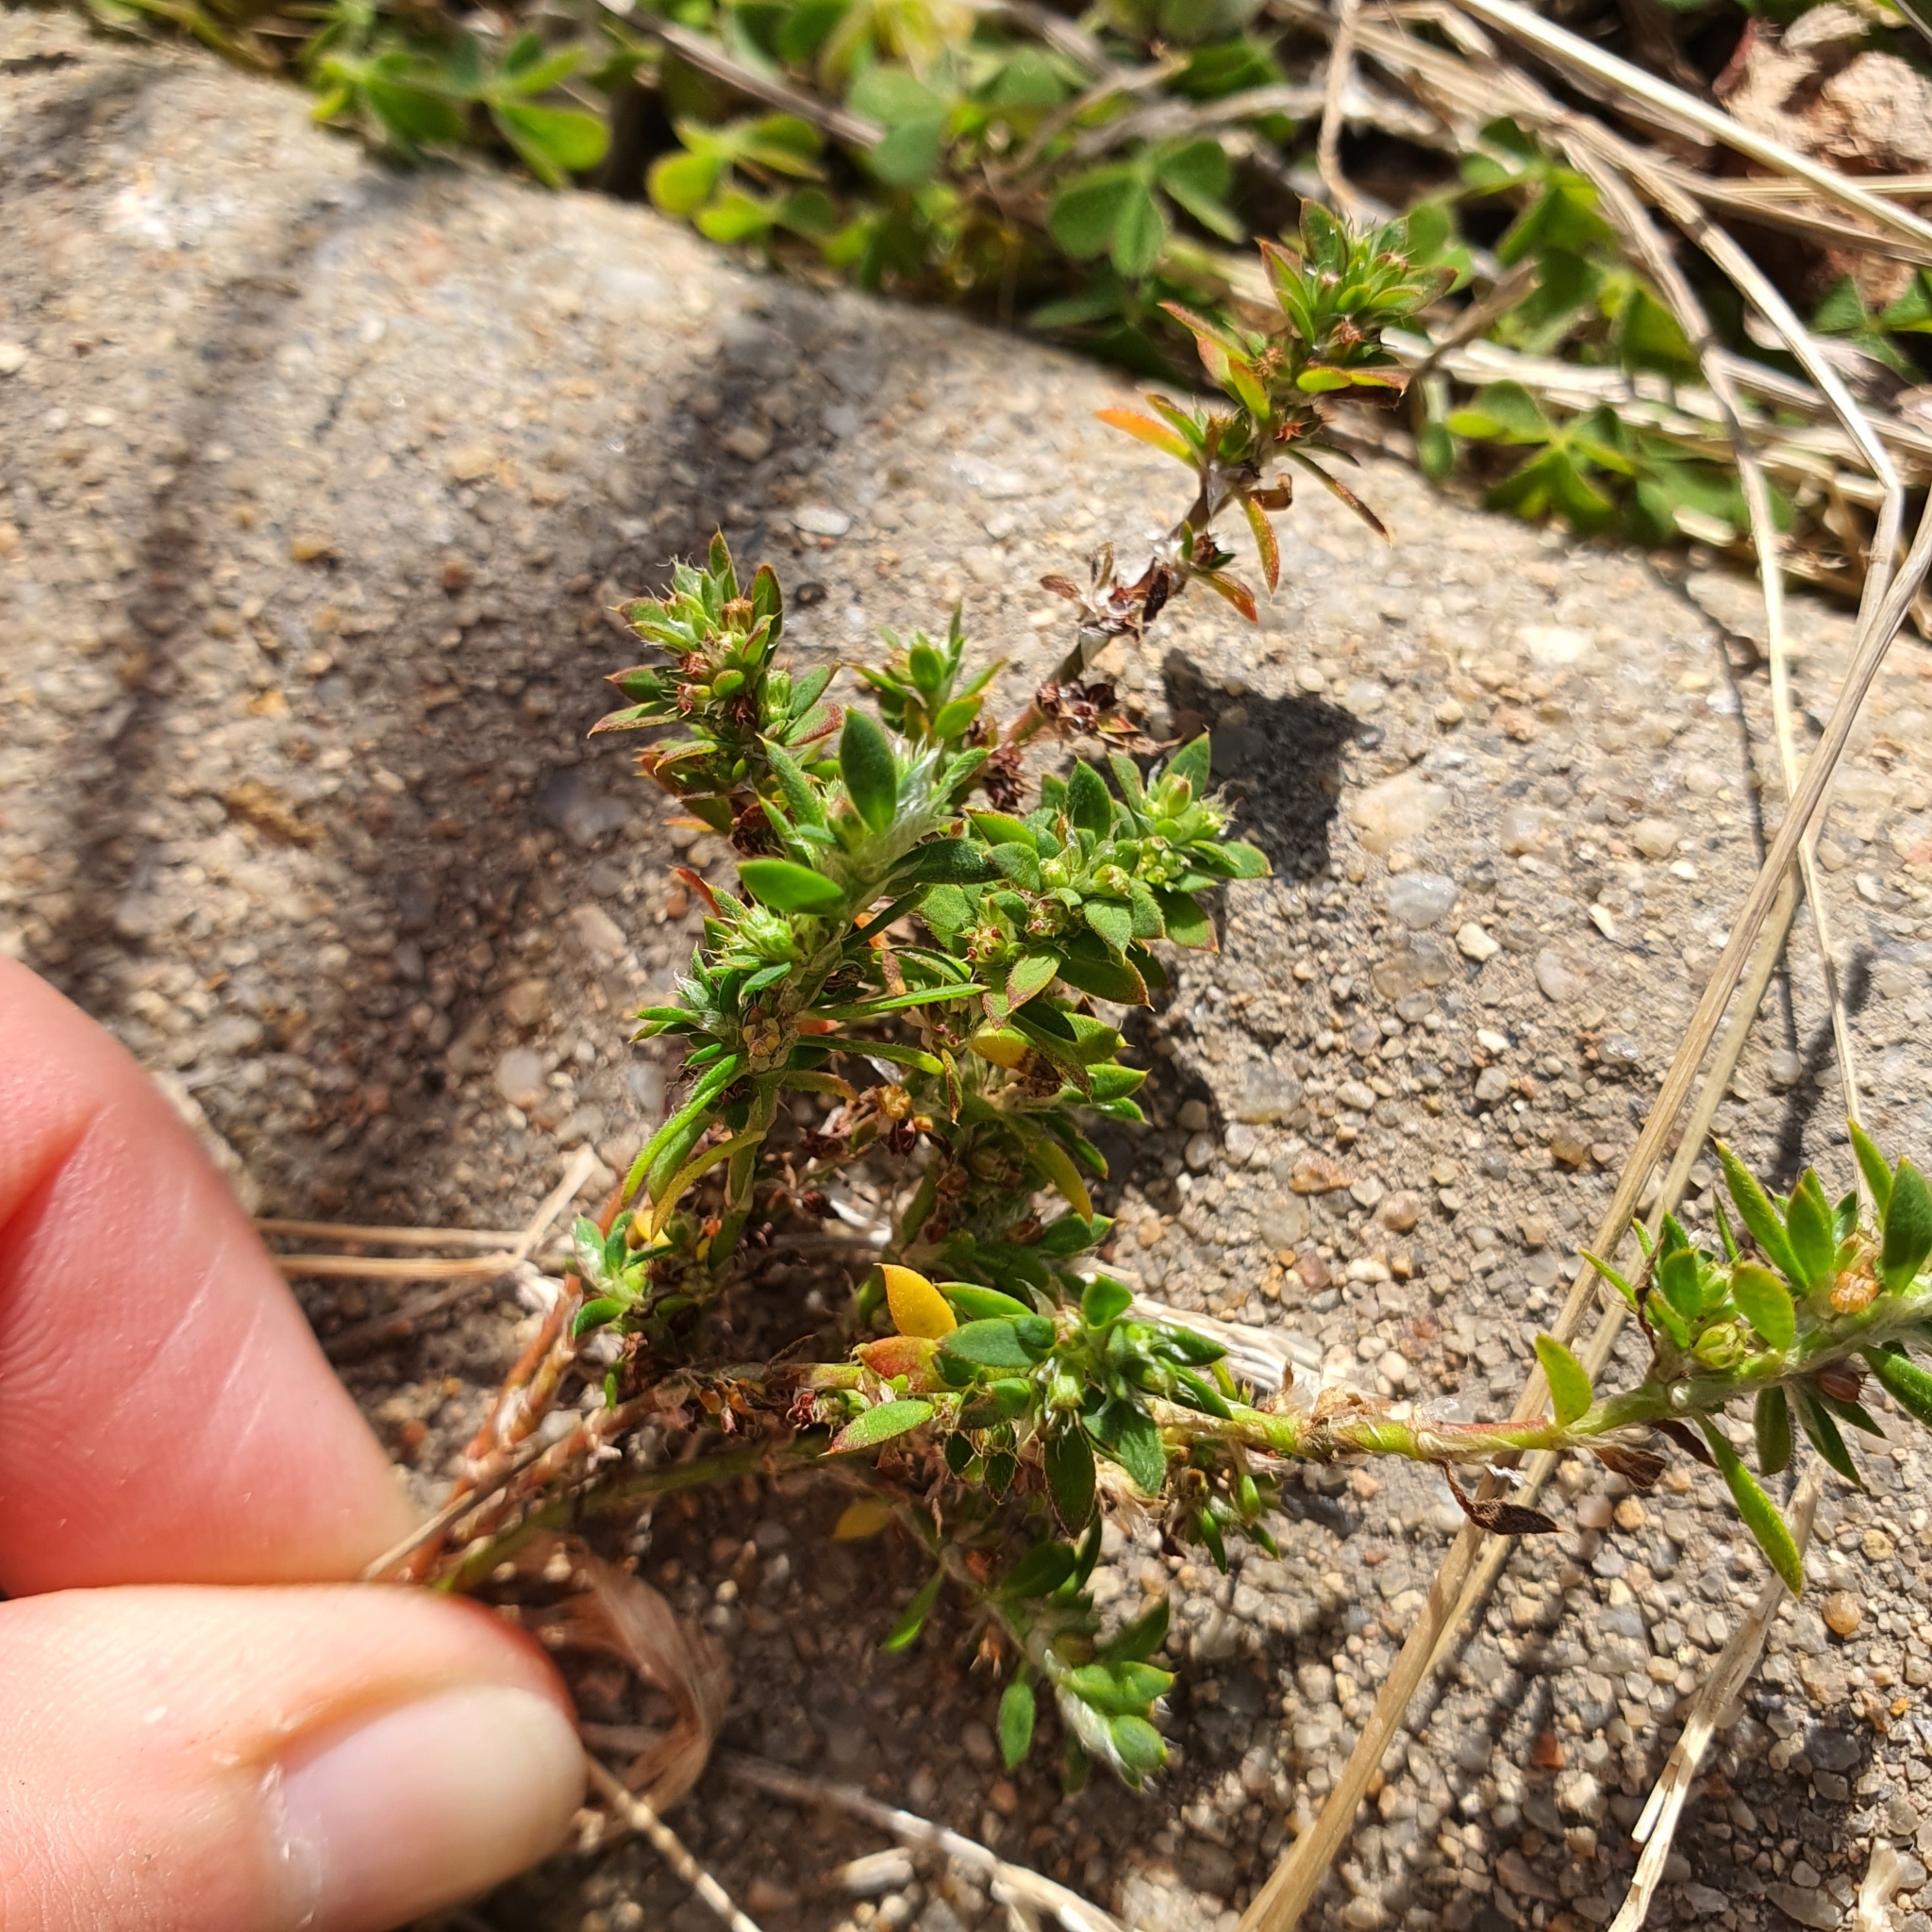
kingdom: Plantae
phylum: Tracheophyta
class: Magnoliopsida
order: Caryophyllales
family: Caryophyllaceae
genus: Paronychia
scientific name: Paronychia brasiliana
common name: Brazilian whitlow
